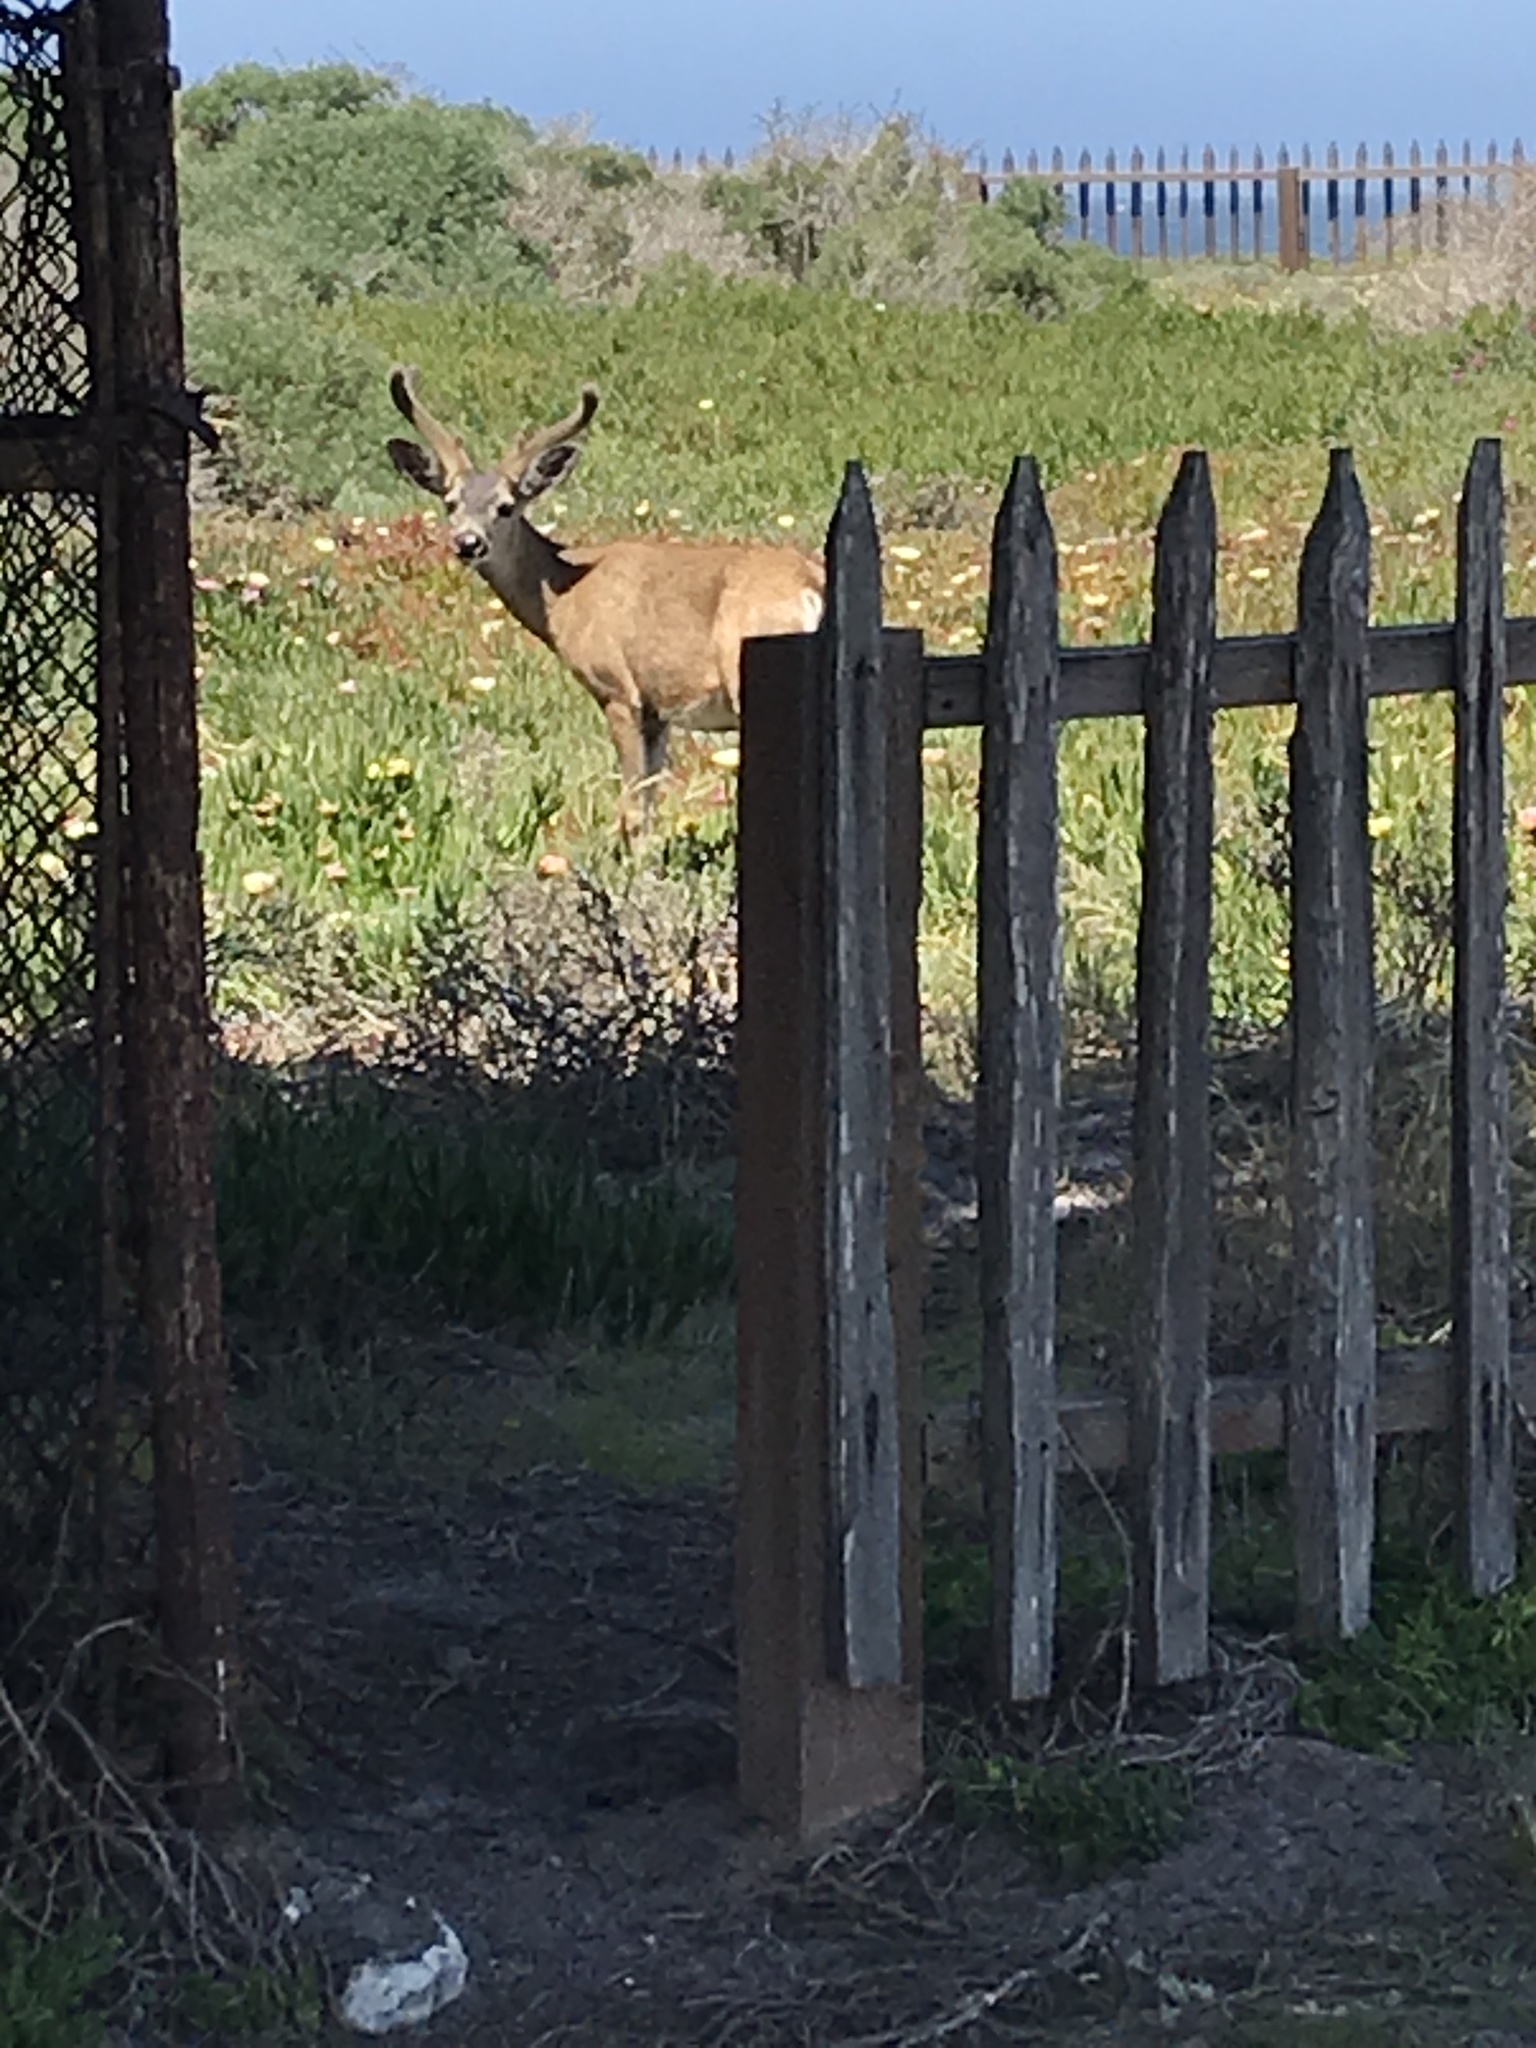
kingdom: Animalia
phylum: Chordata
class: Mammalia
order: Artiodactyla
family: Cervidae
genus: Odocoileus
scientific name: Odocoileus hemionus
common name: Mule deer
